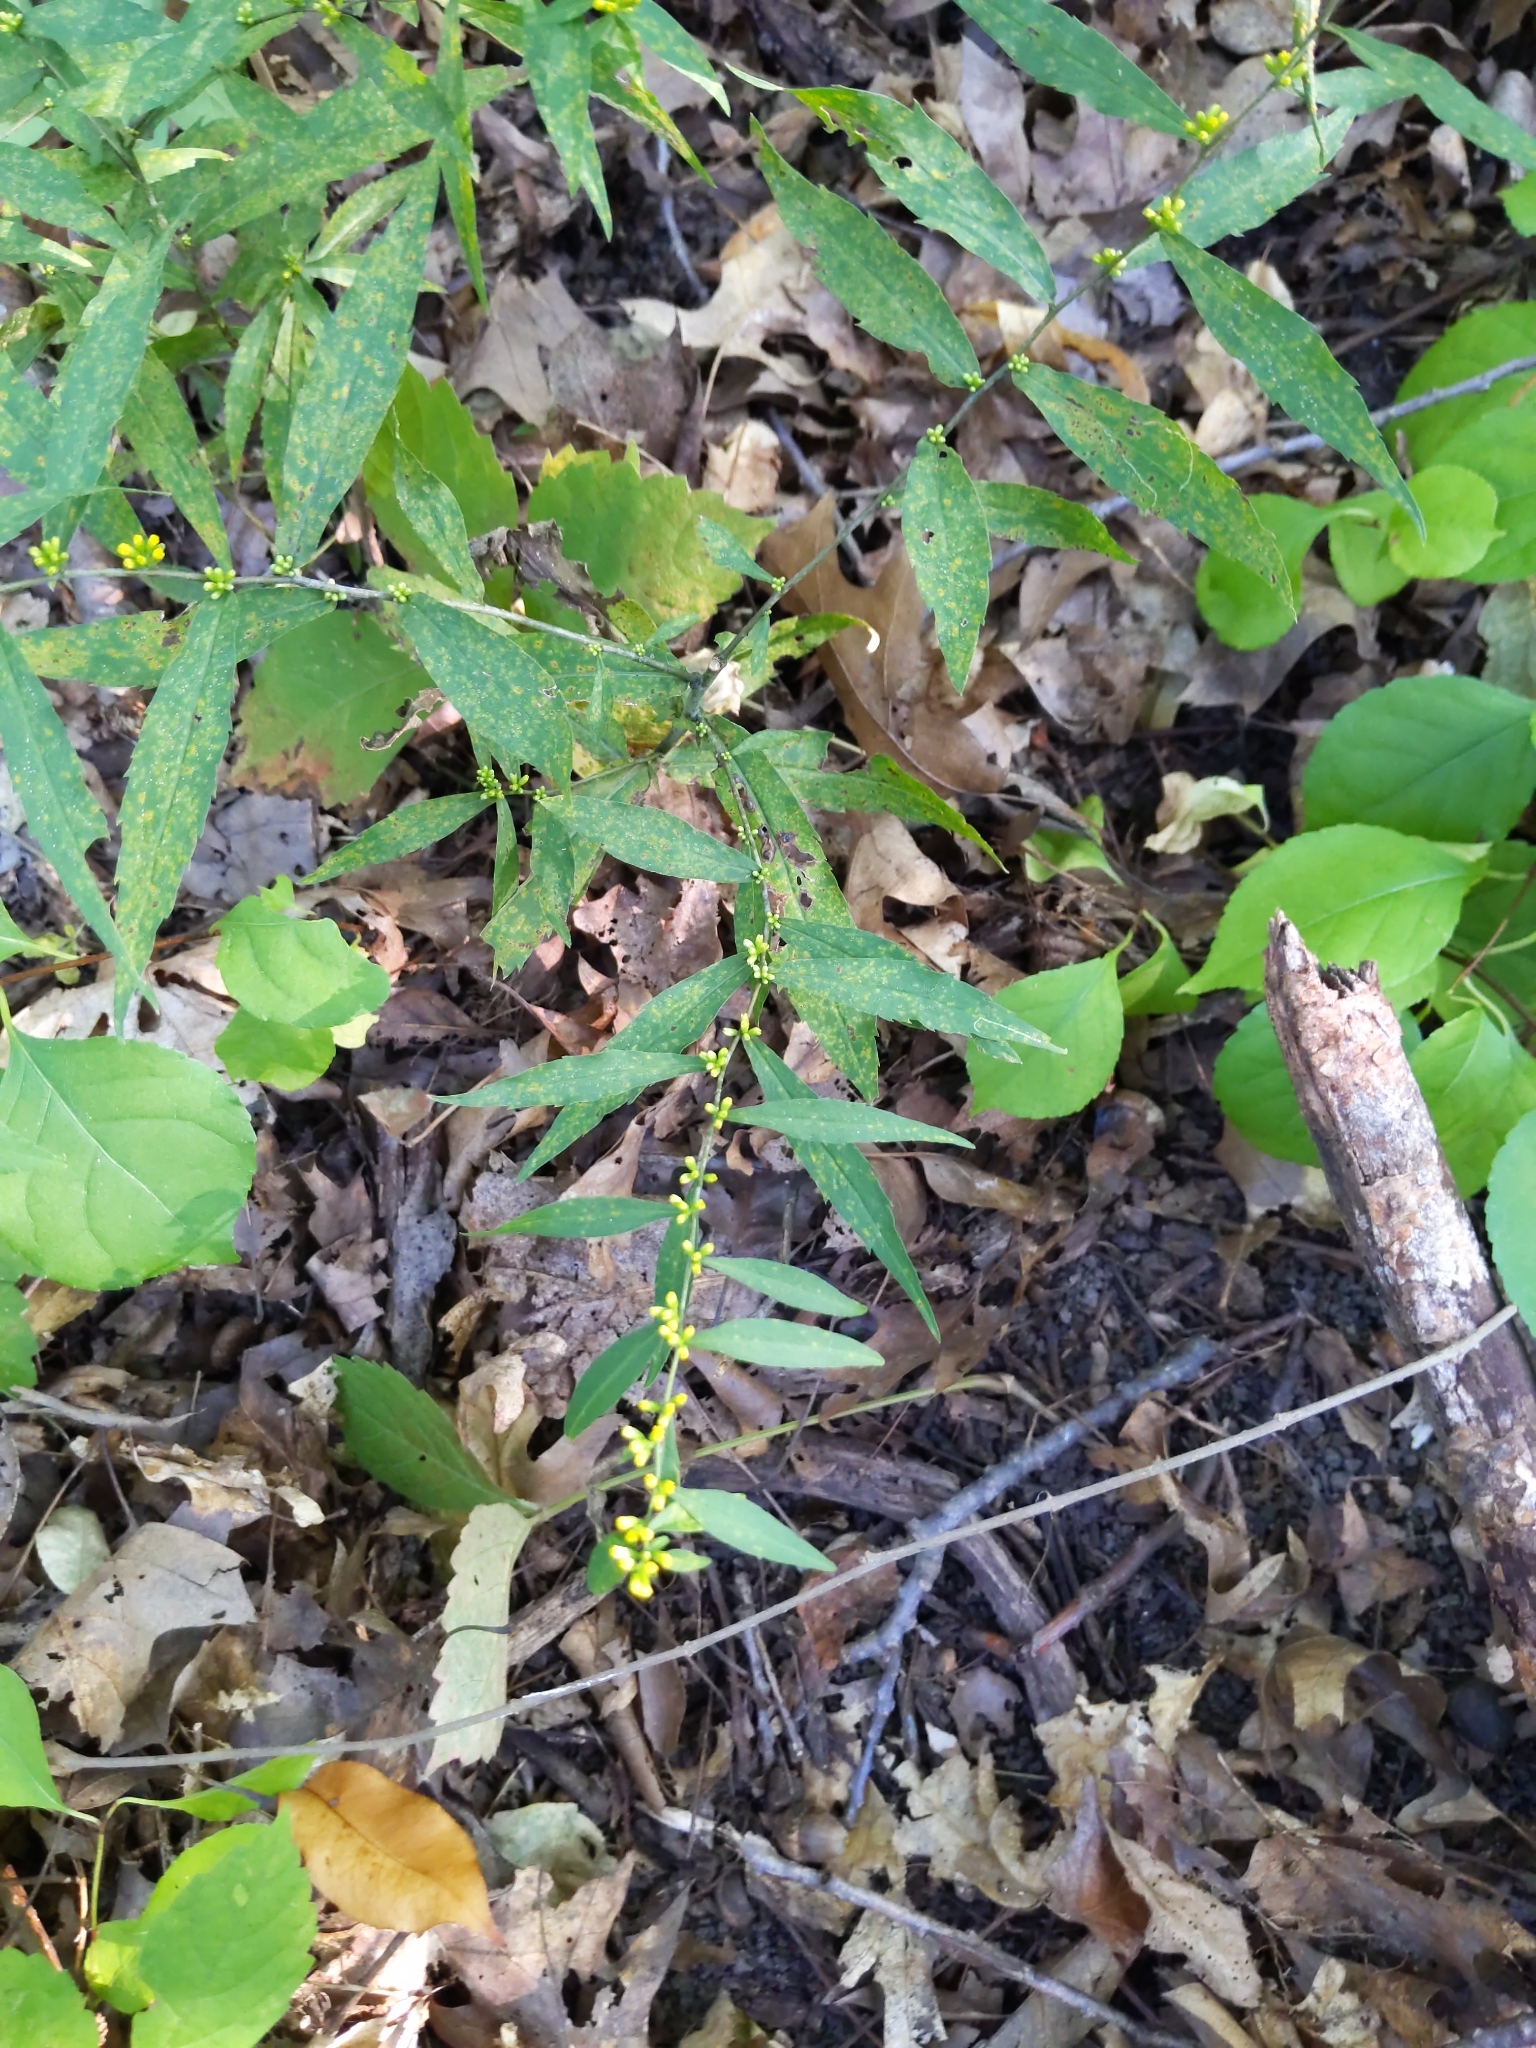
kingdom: Plantae
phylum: Tracheophyta
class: Magnoliopsida
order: Asterales
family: Asteraceae
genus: Solidago
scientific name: Solidago caesia
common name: Woodland goldenrod
